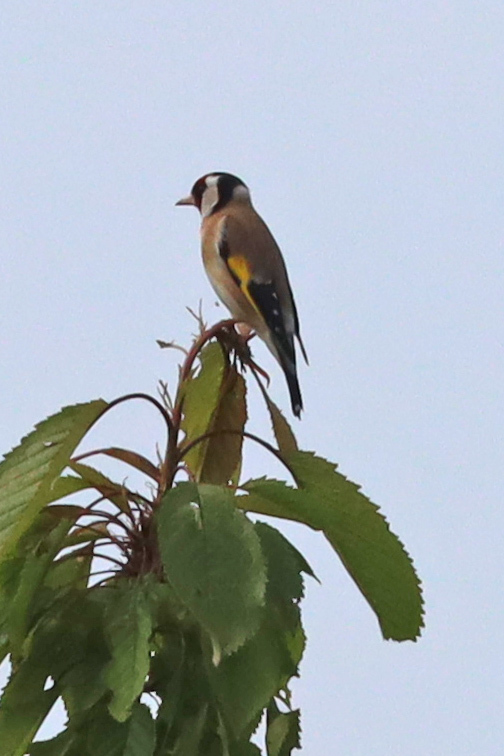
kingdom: Animalia
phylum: Chordata
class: Aves
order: Passeriformes
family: Fringillidae
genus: Carduelis
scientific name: Carduelis carduelis
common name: European goldfinch
